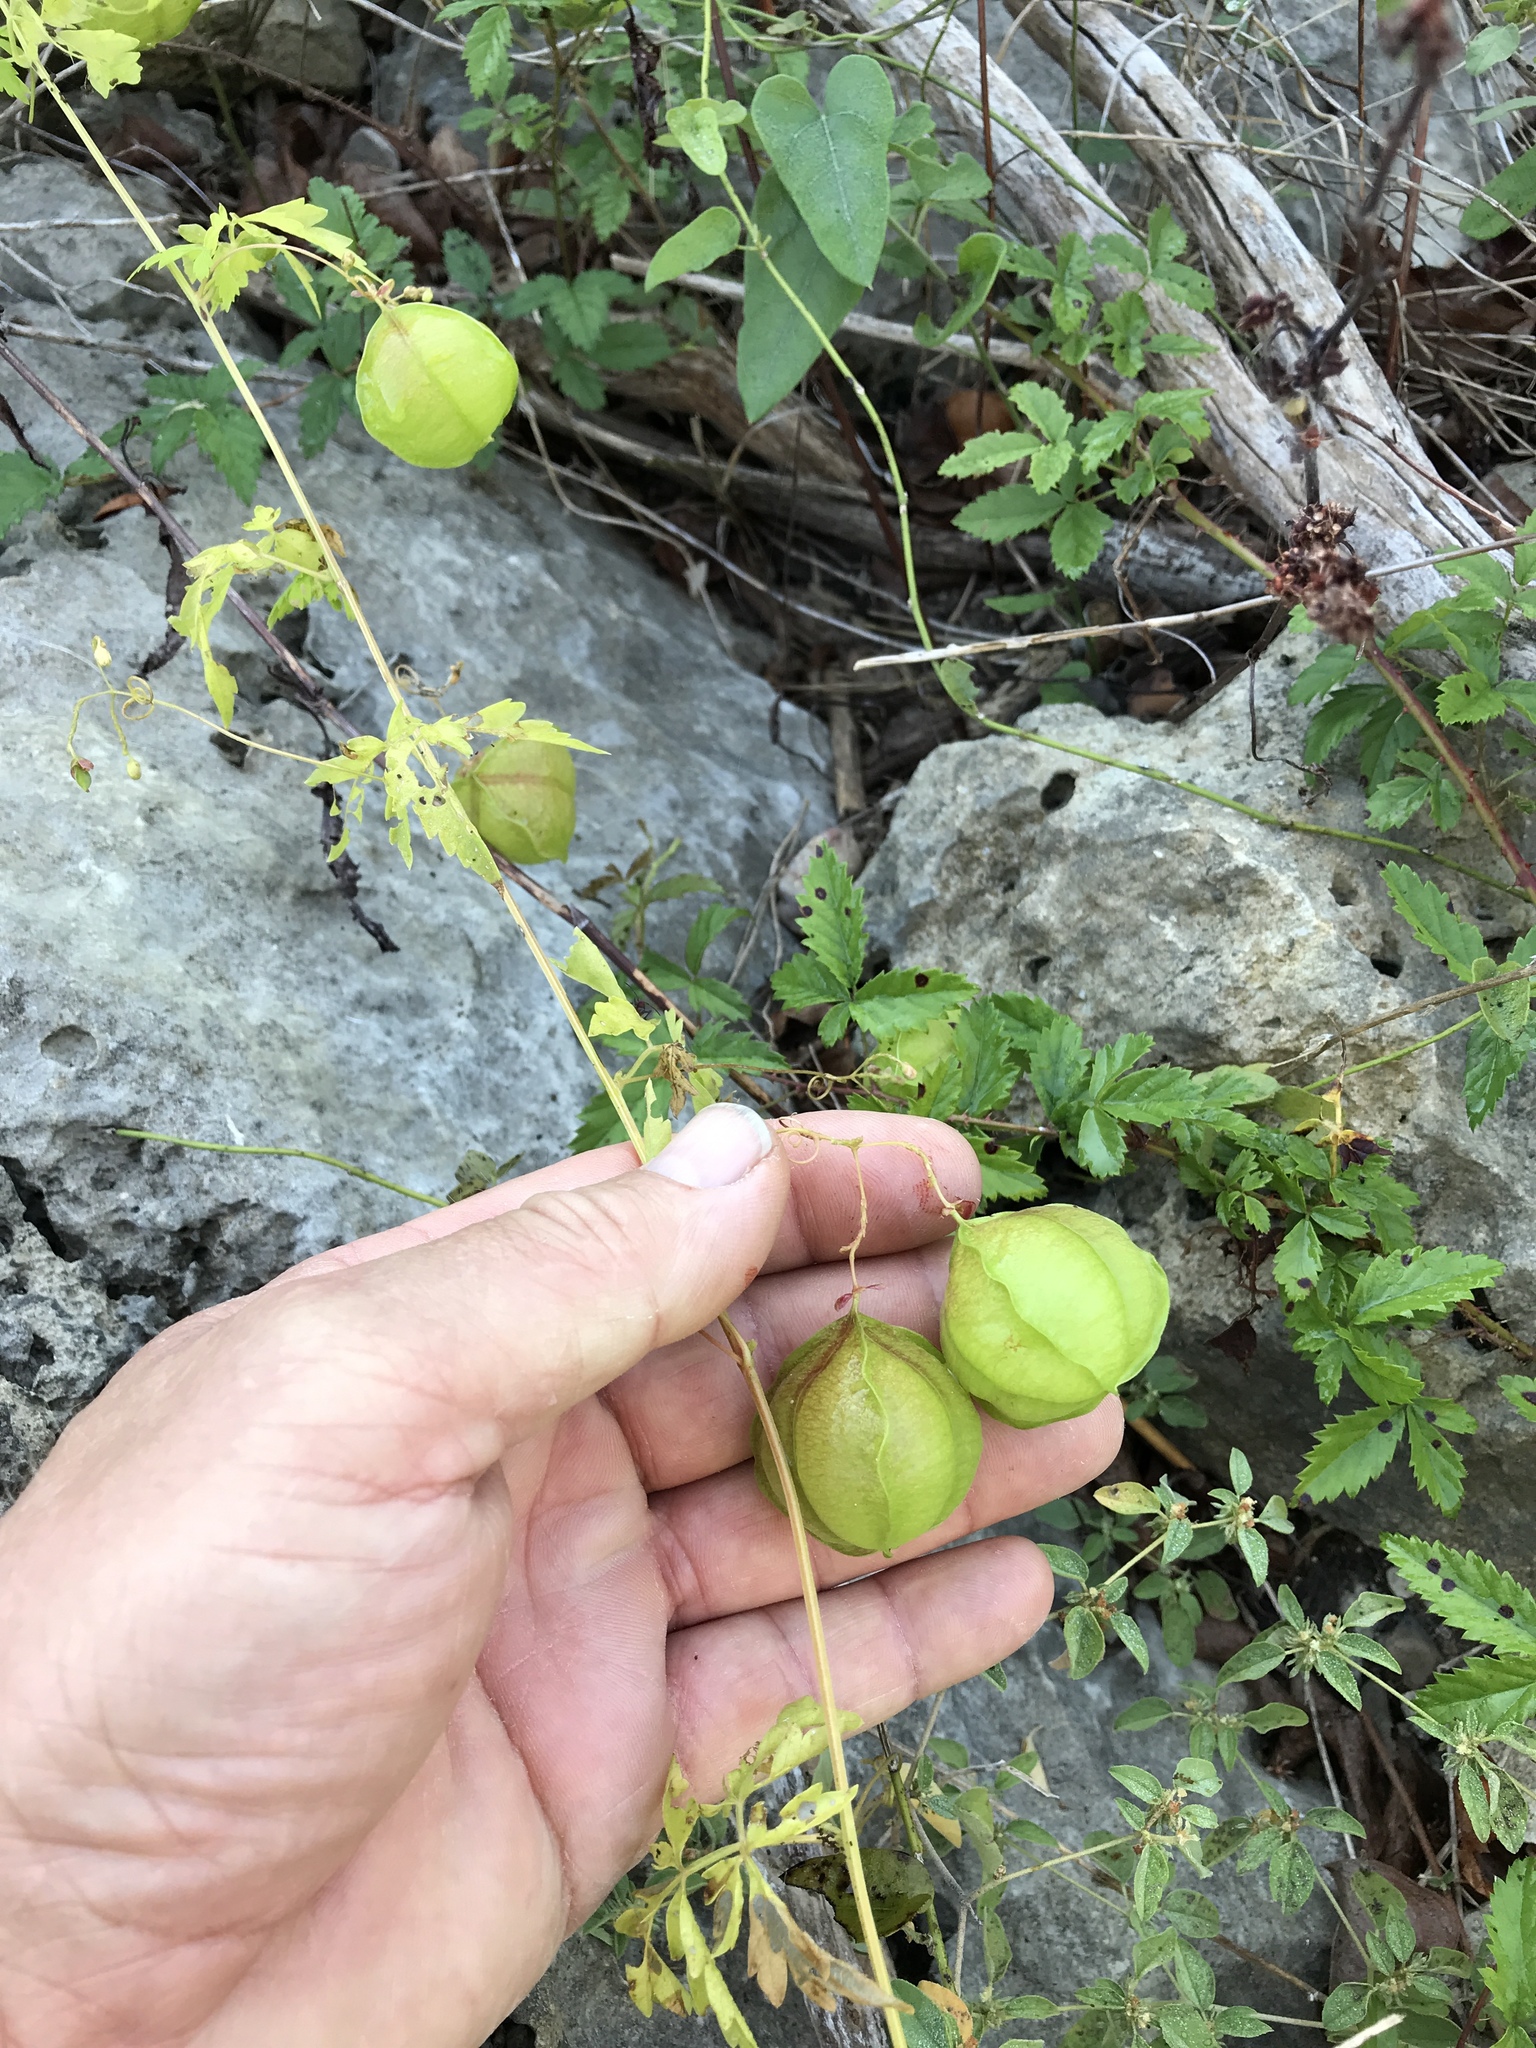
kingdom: Plantae
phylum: Tracheophyta
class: Magnoliopsida
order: Sapindales
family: Sapindaceae
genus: Cardiospermum
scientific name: Cardiospermum halicacabum
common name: Balloon vine
